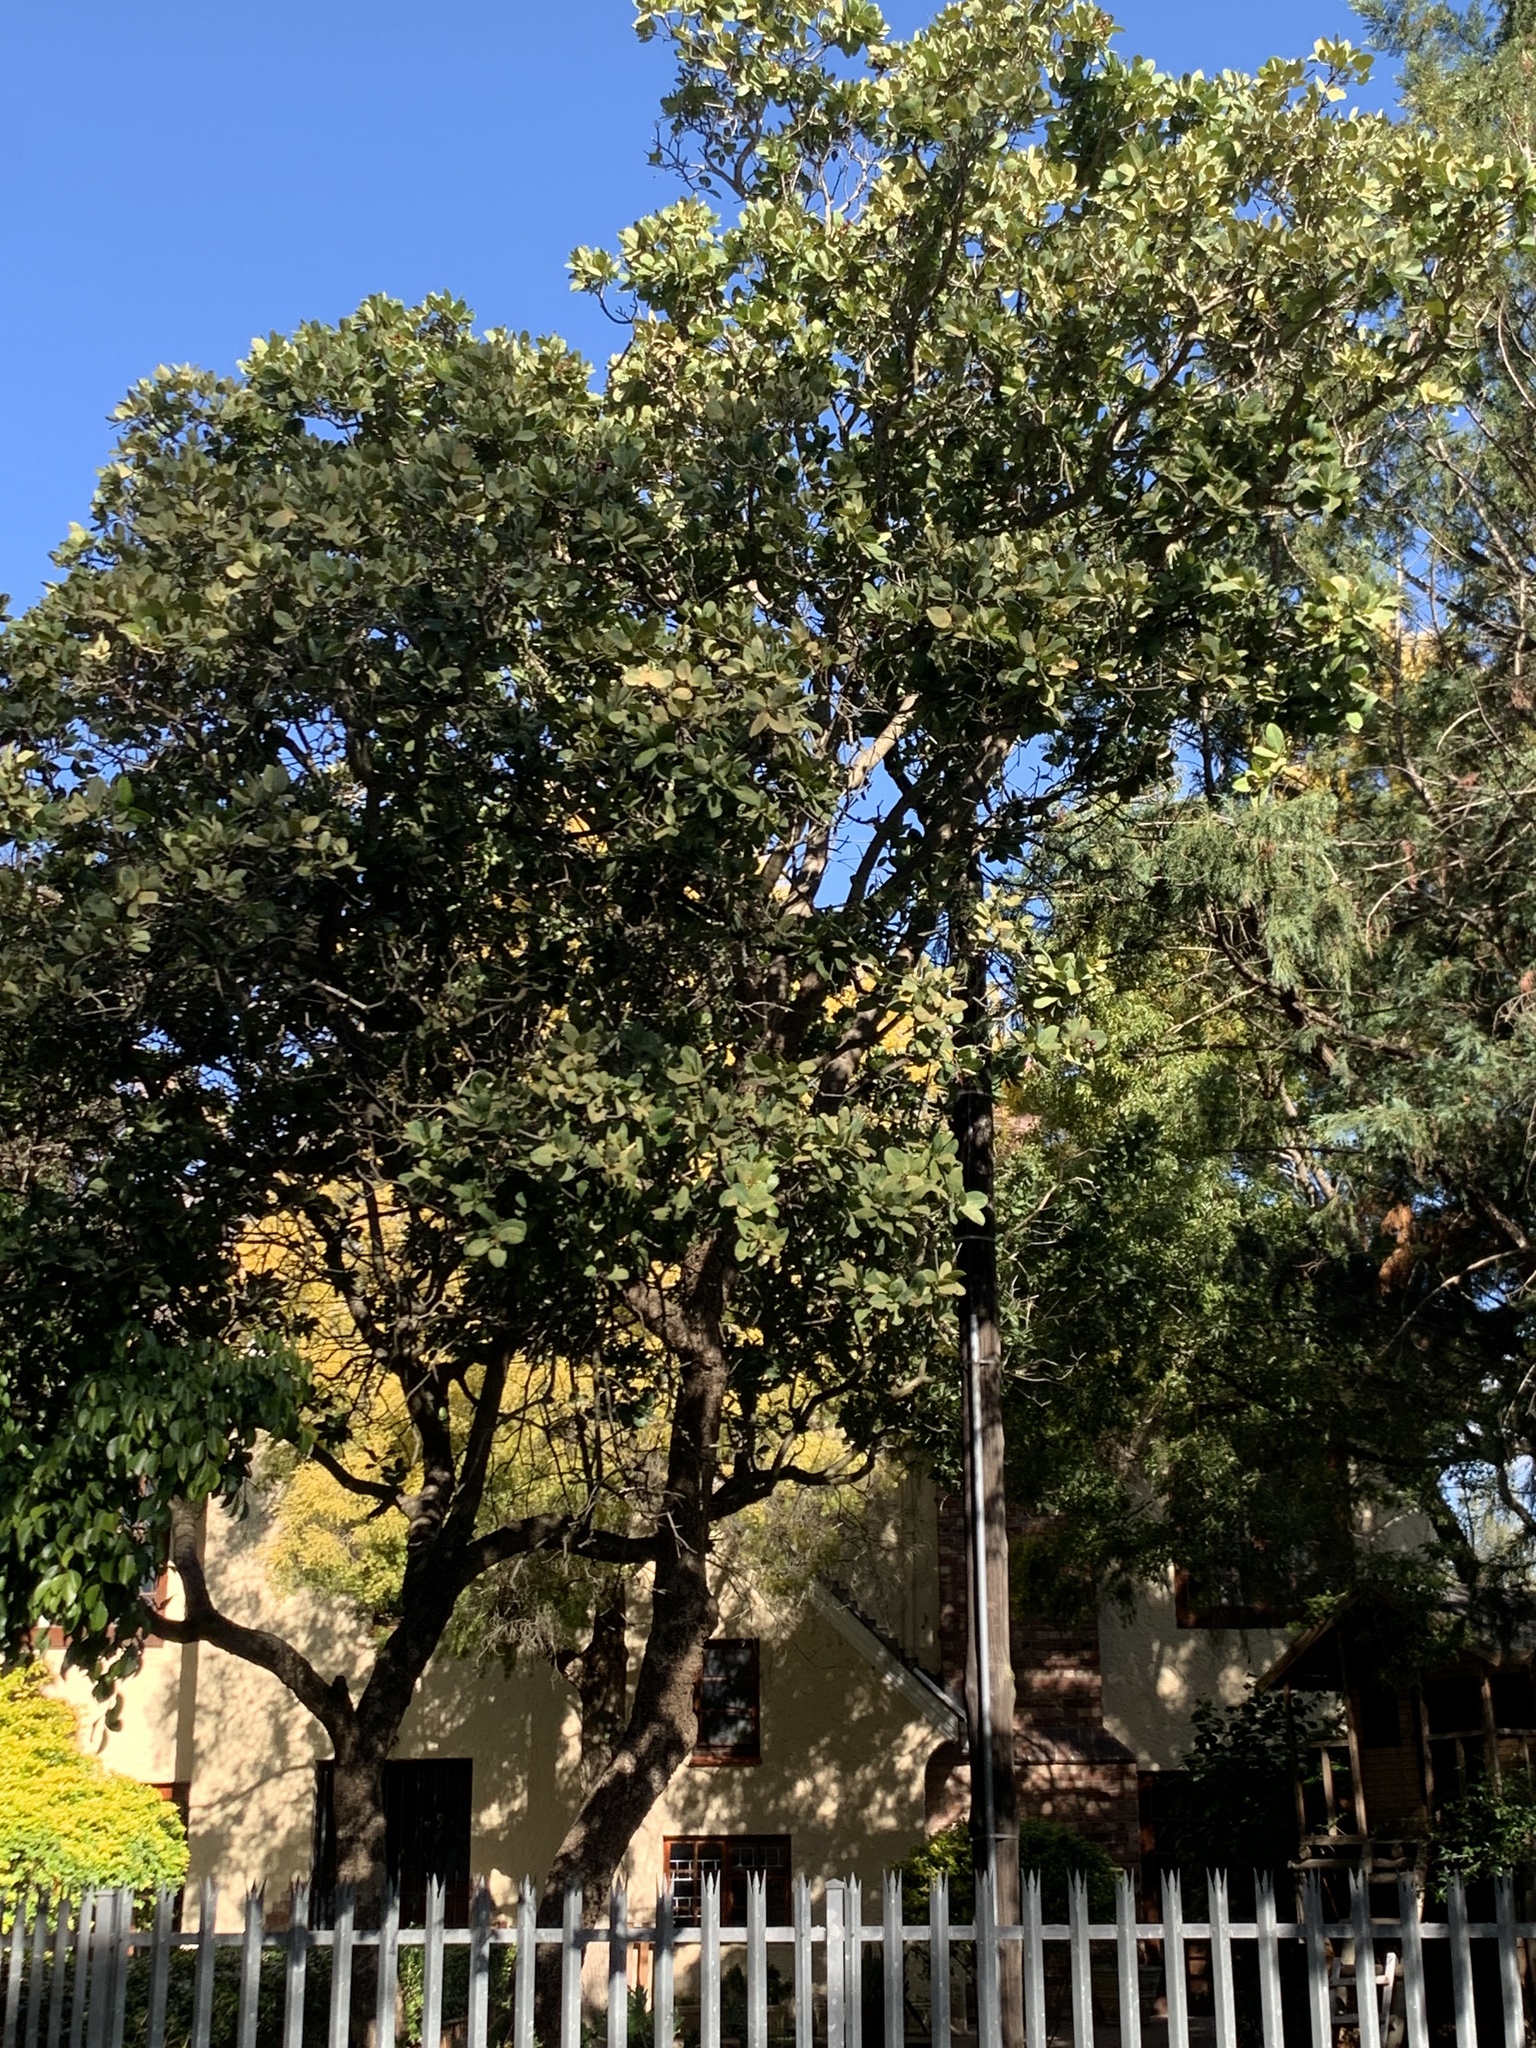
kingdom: Plantae
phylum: Tracheophyta
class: Magnoliopsida
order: Myrtales
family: Myrtaceae
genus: Syzygium
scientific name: Syzygium cordatum
